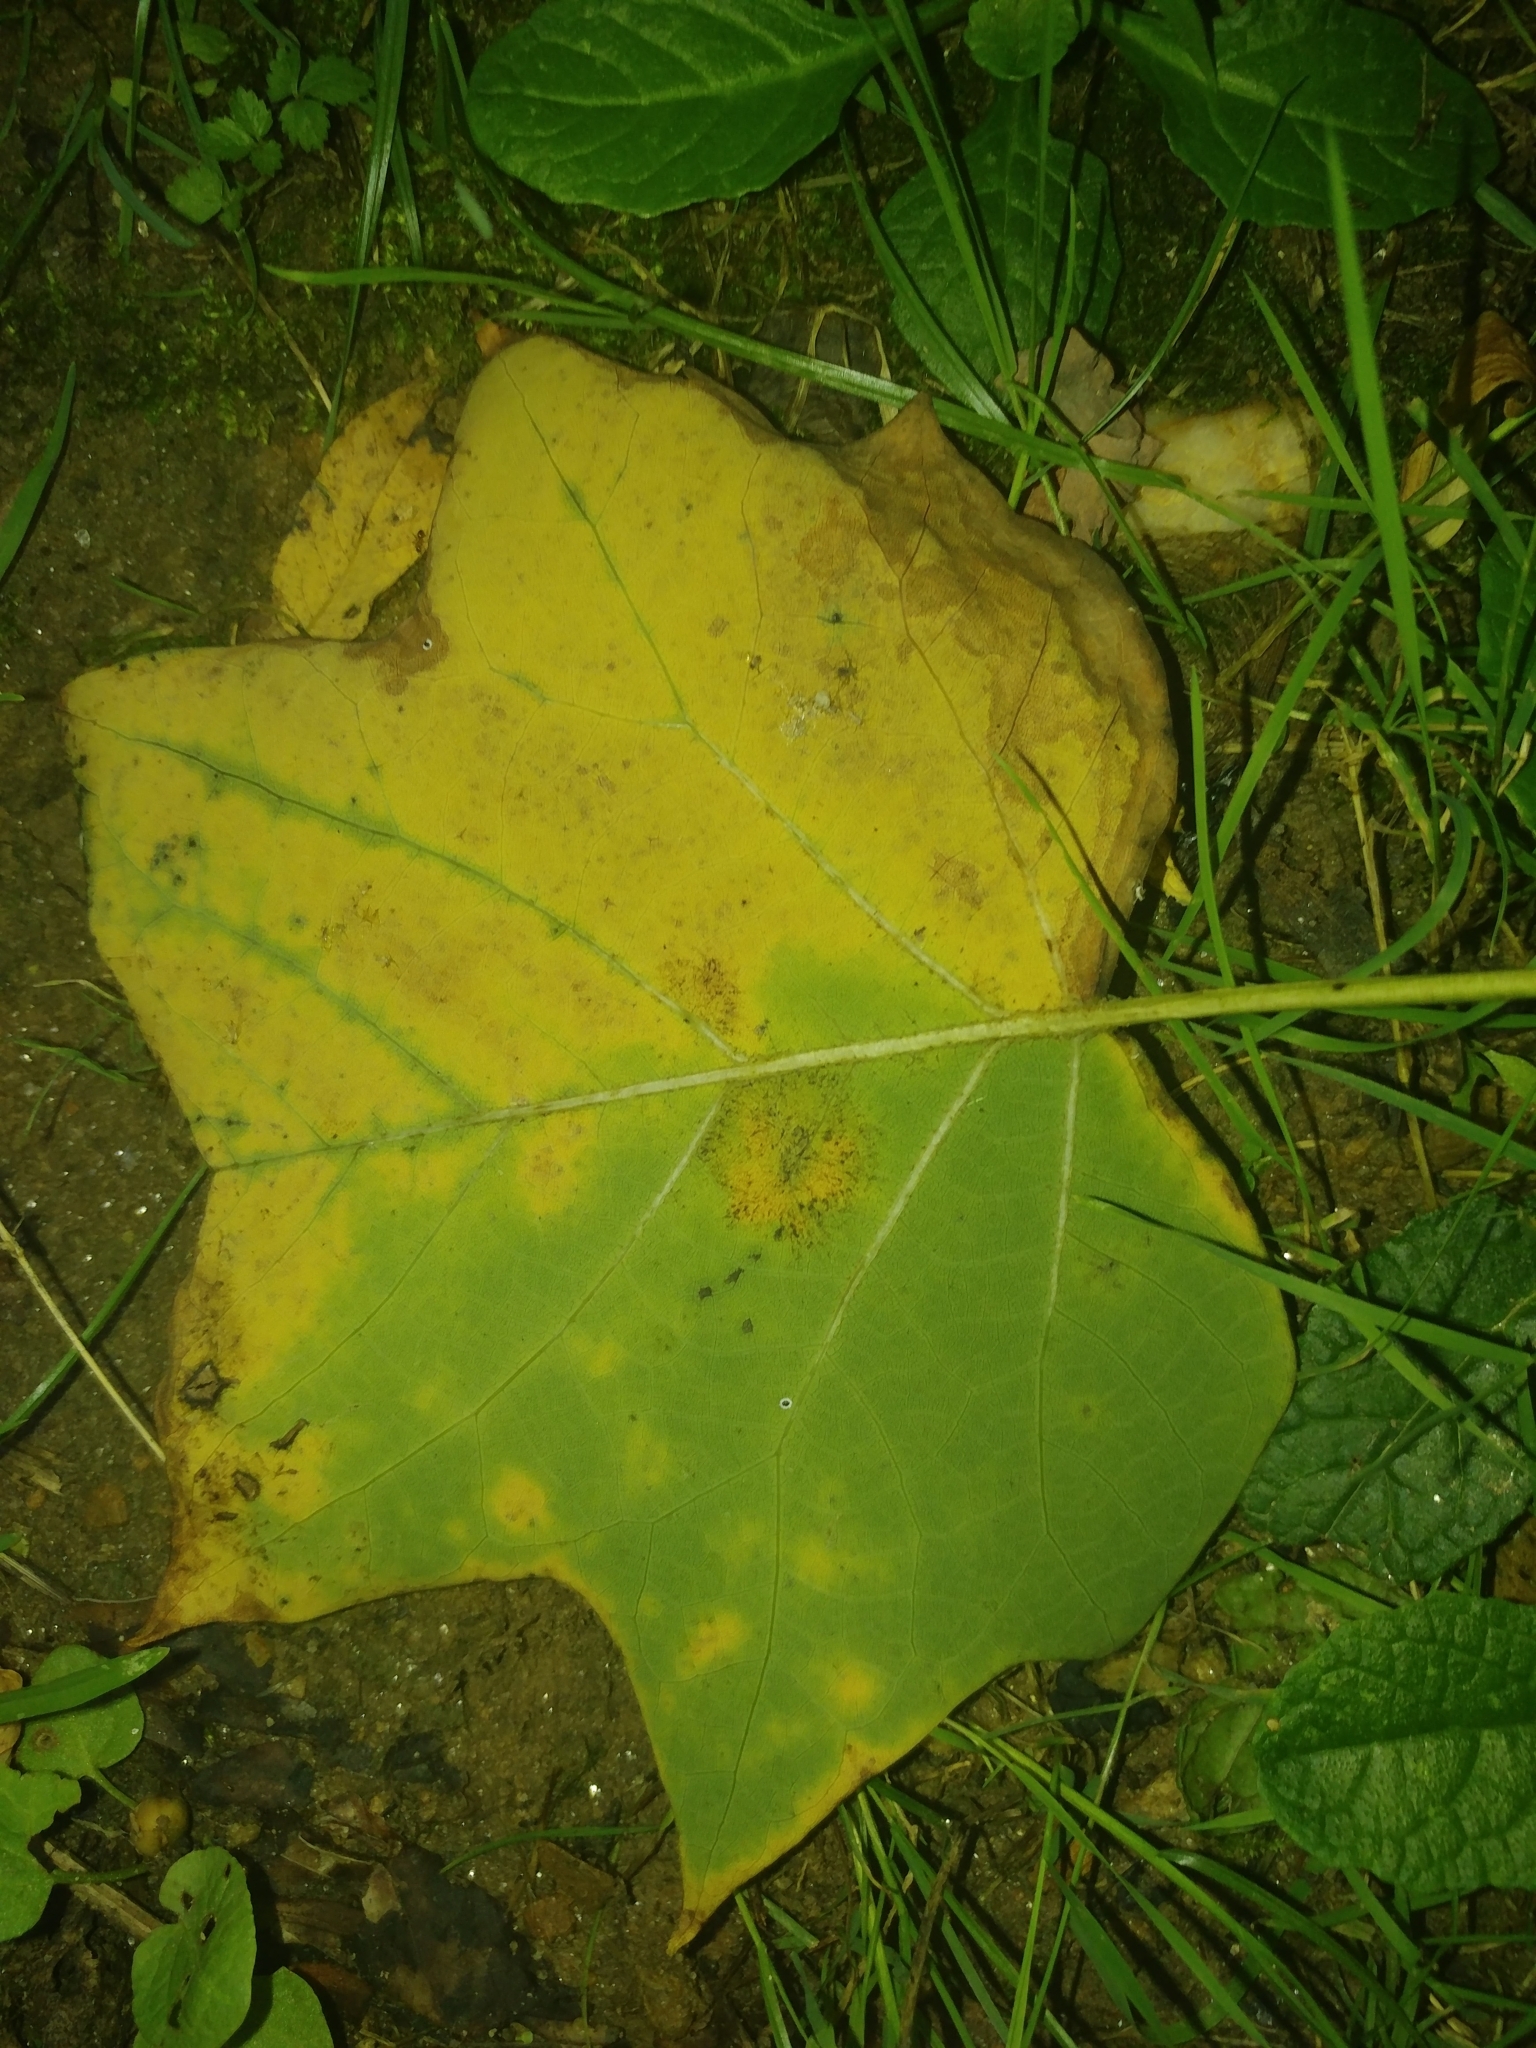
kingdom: Plantae
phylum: Tracheophyta
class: Magnoliopsida
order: Magnoliales
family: Magnoliaceae
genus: Liriodendron
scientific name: Liriodendron tulipifera
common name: Tulip tree
